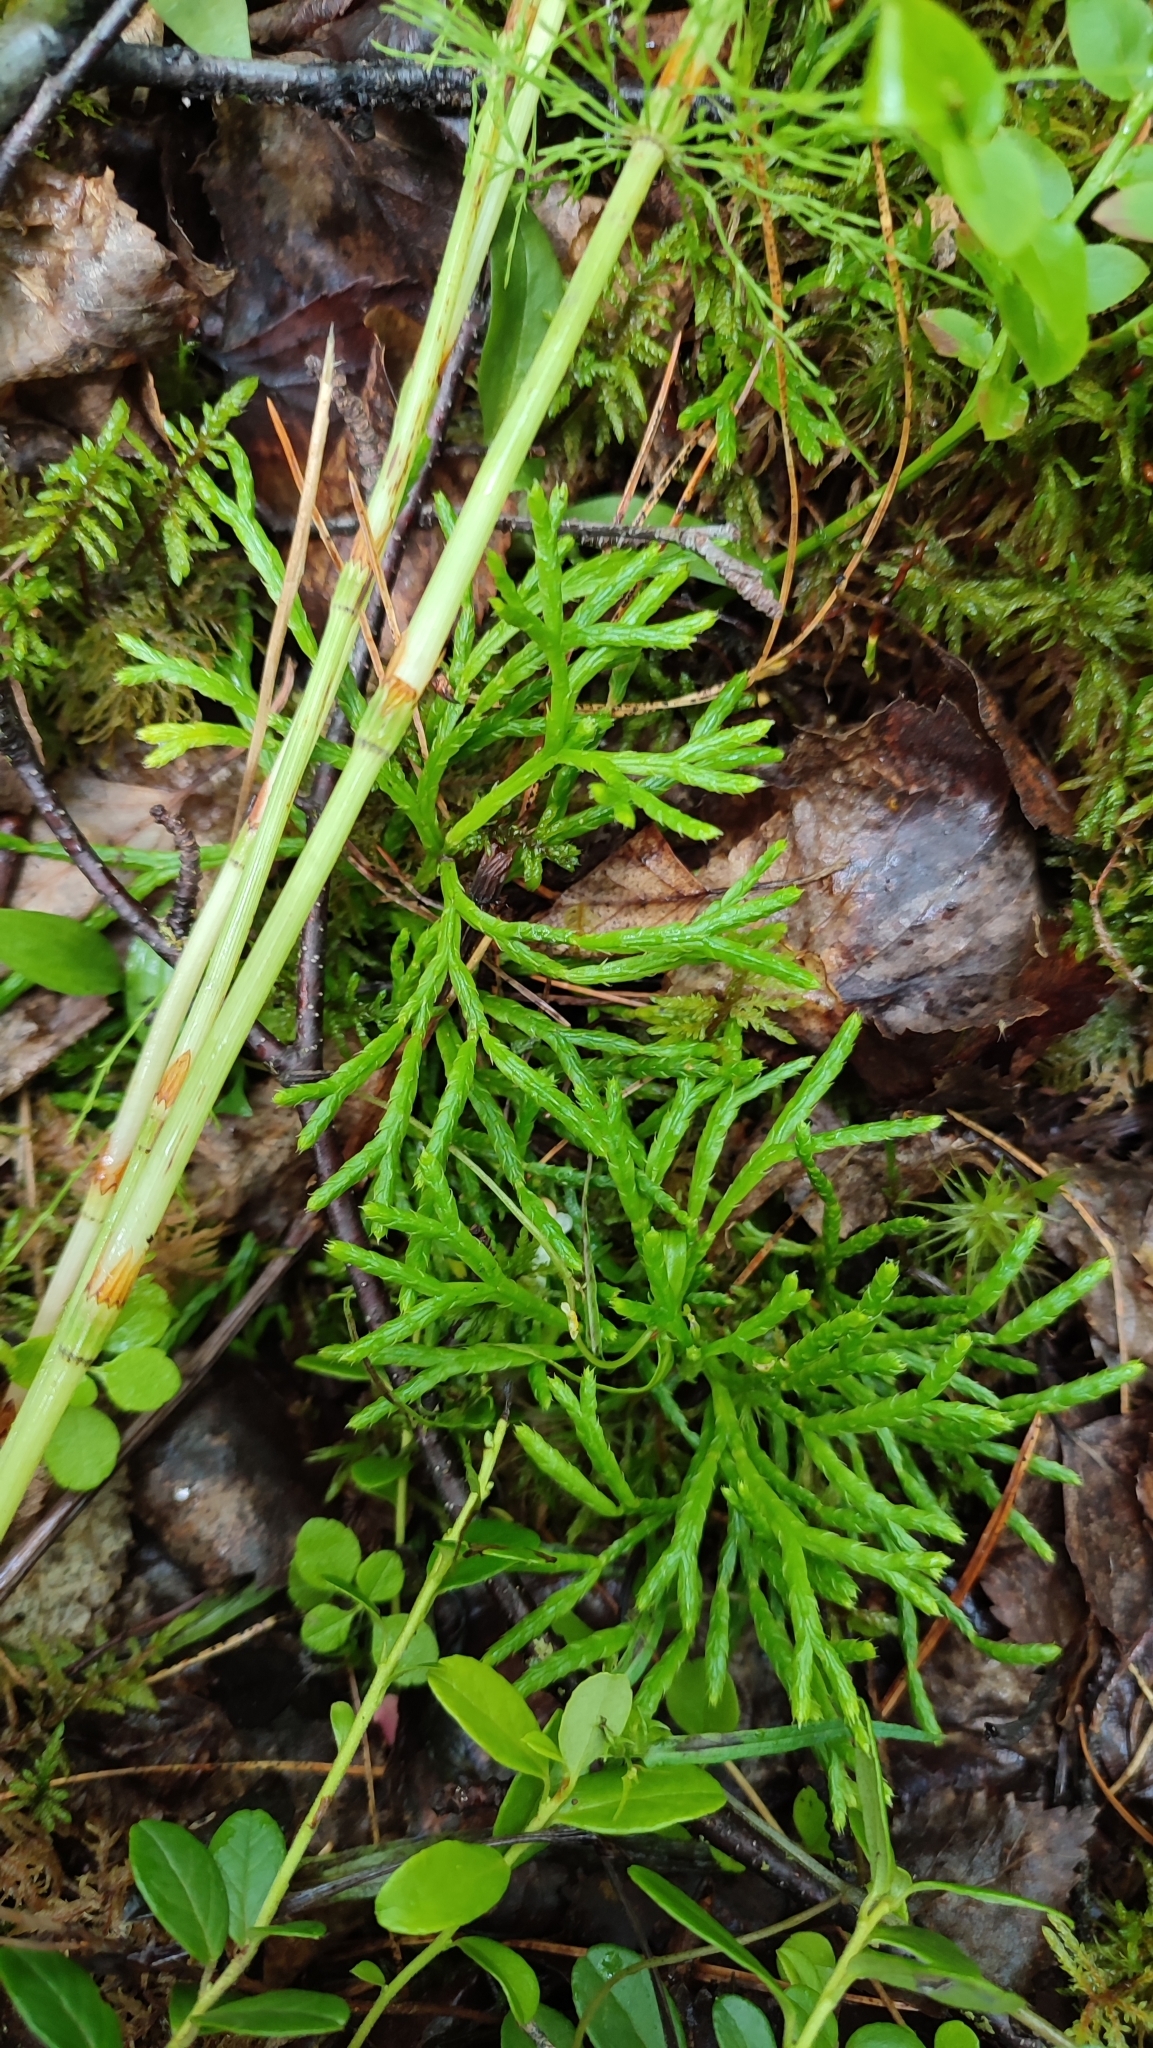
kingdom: Plantae
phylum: Tracheophyta
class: Lycopodiopsida
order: Lycopodiales
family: Lycopodiaceae
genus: Diphasiastrum
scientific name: Diphasiastrum complanatum
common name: Northern running-pine
